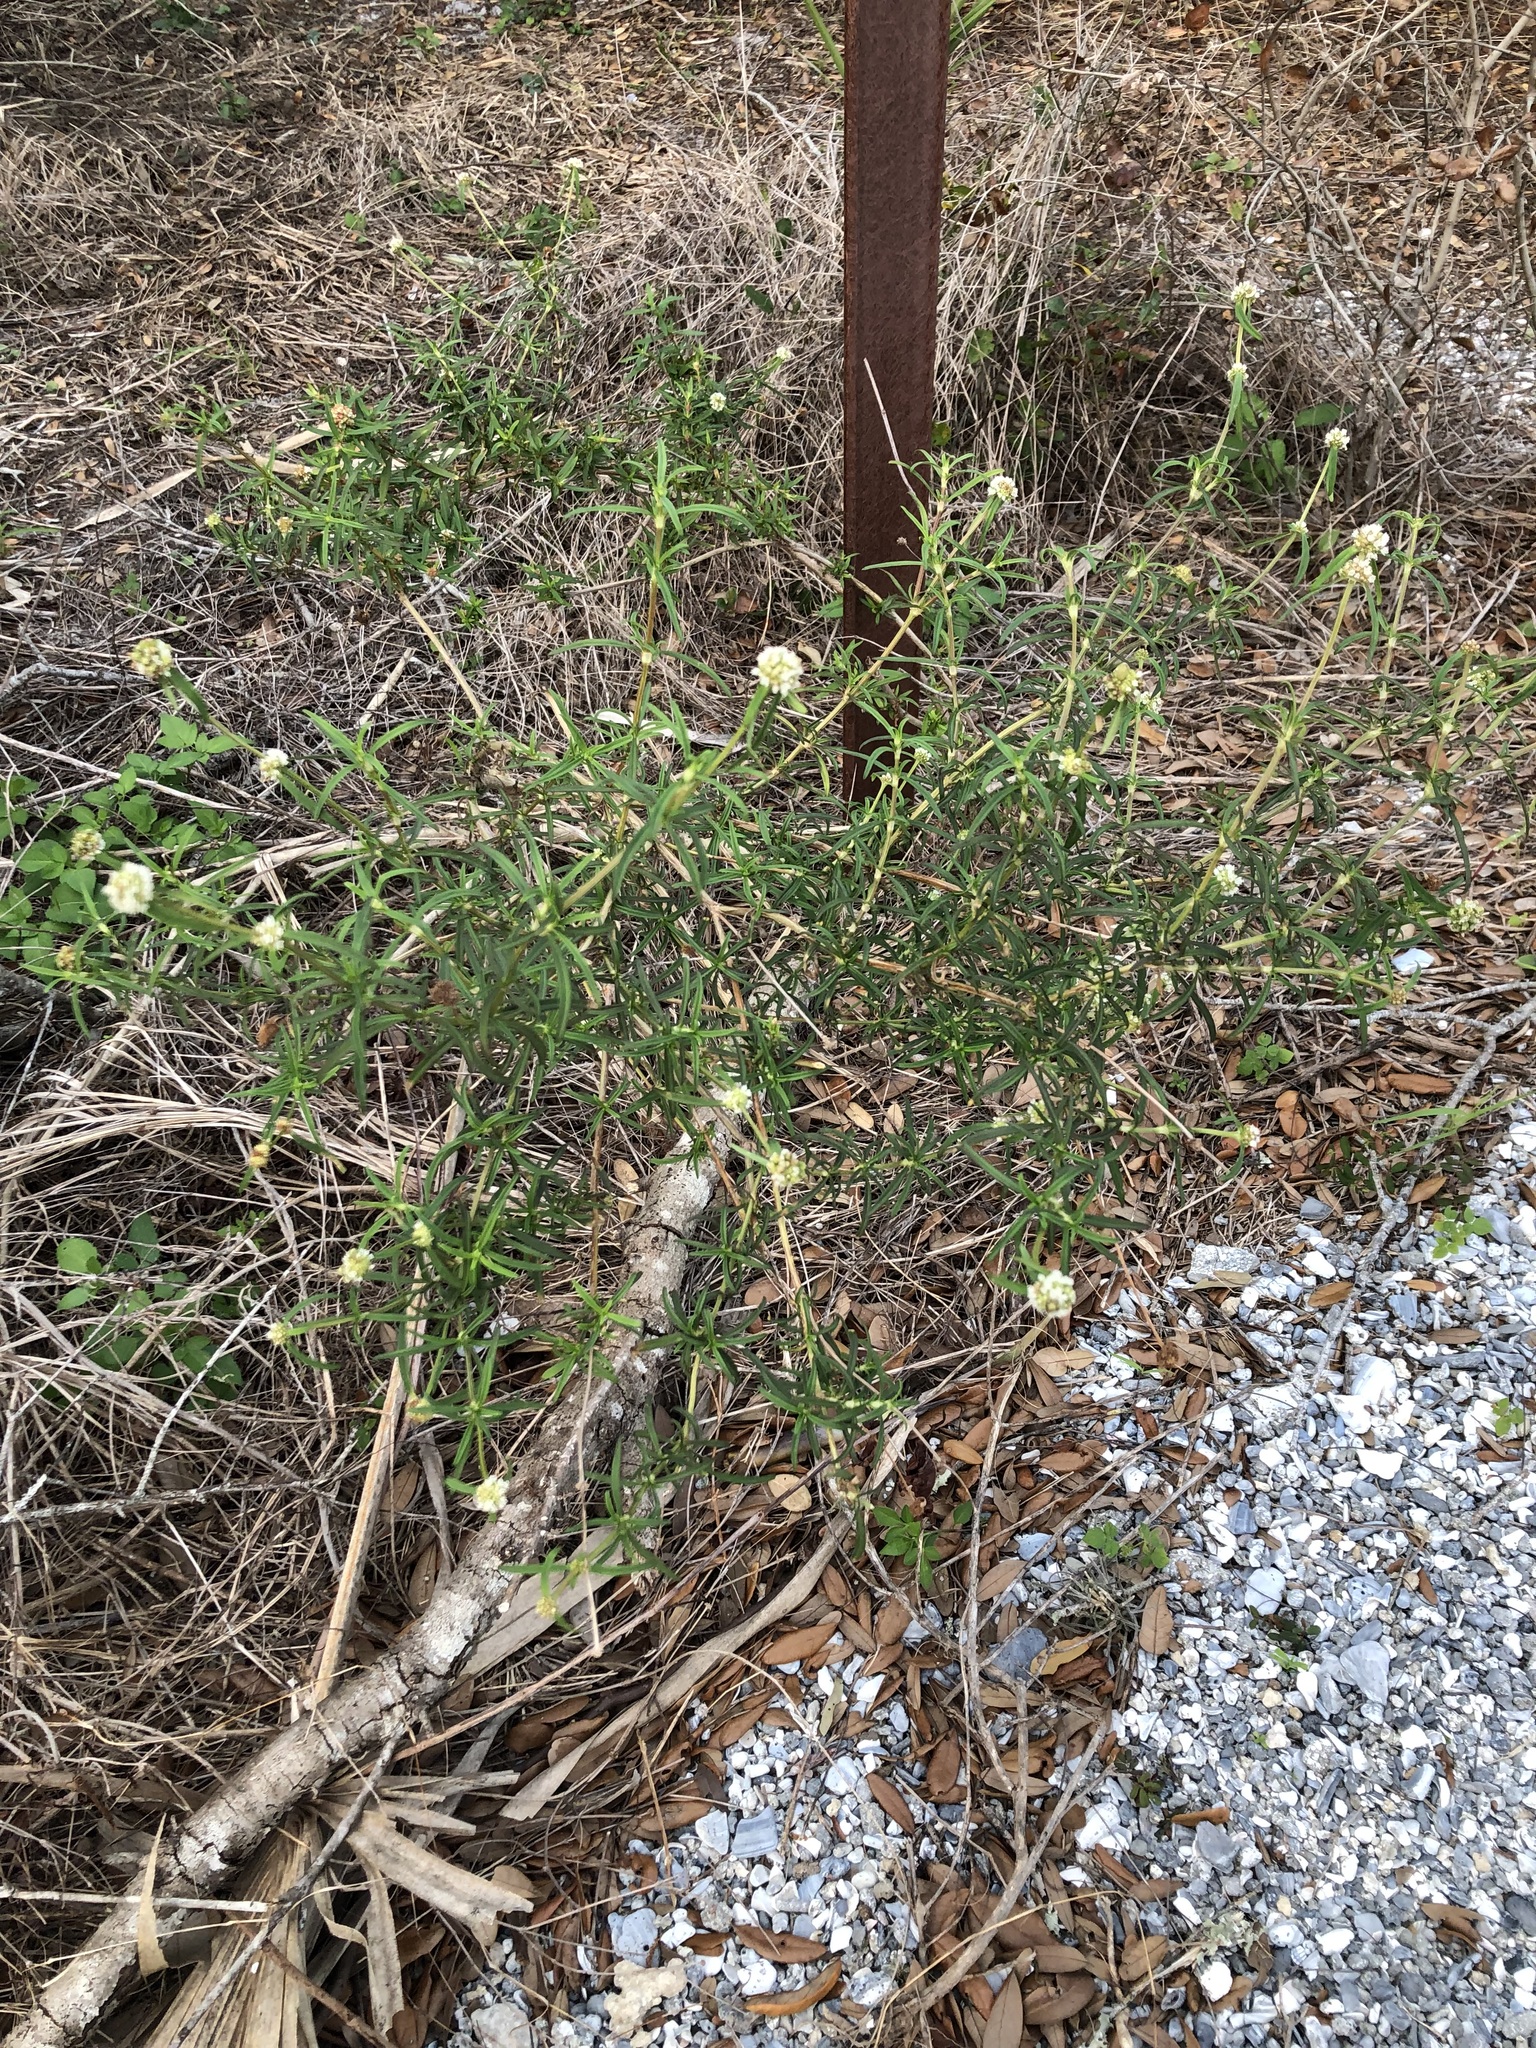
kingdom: Plantae
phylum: Tracheophyta
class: Magnoliopsida
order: Gentianales
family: Rubiaceae
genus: Spermacoce
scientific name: Spermacoce verticillata
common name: Shrubby false buttonweed
